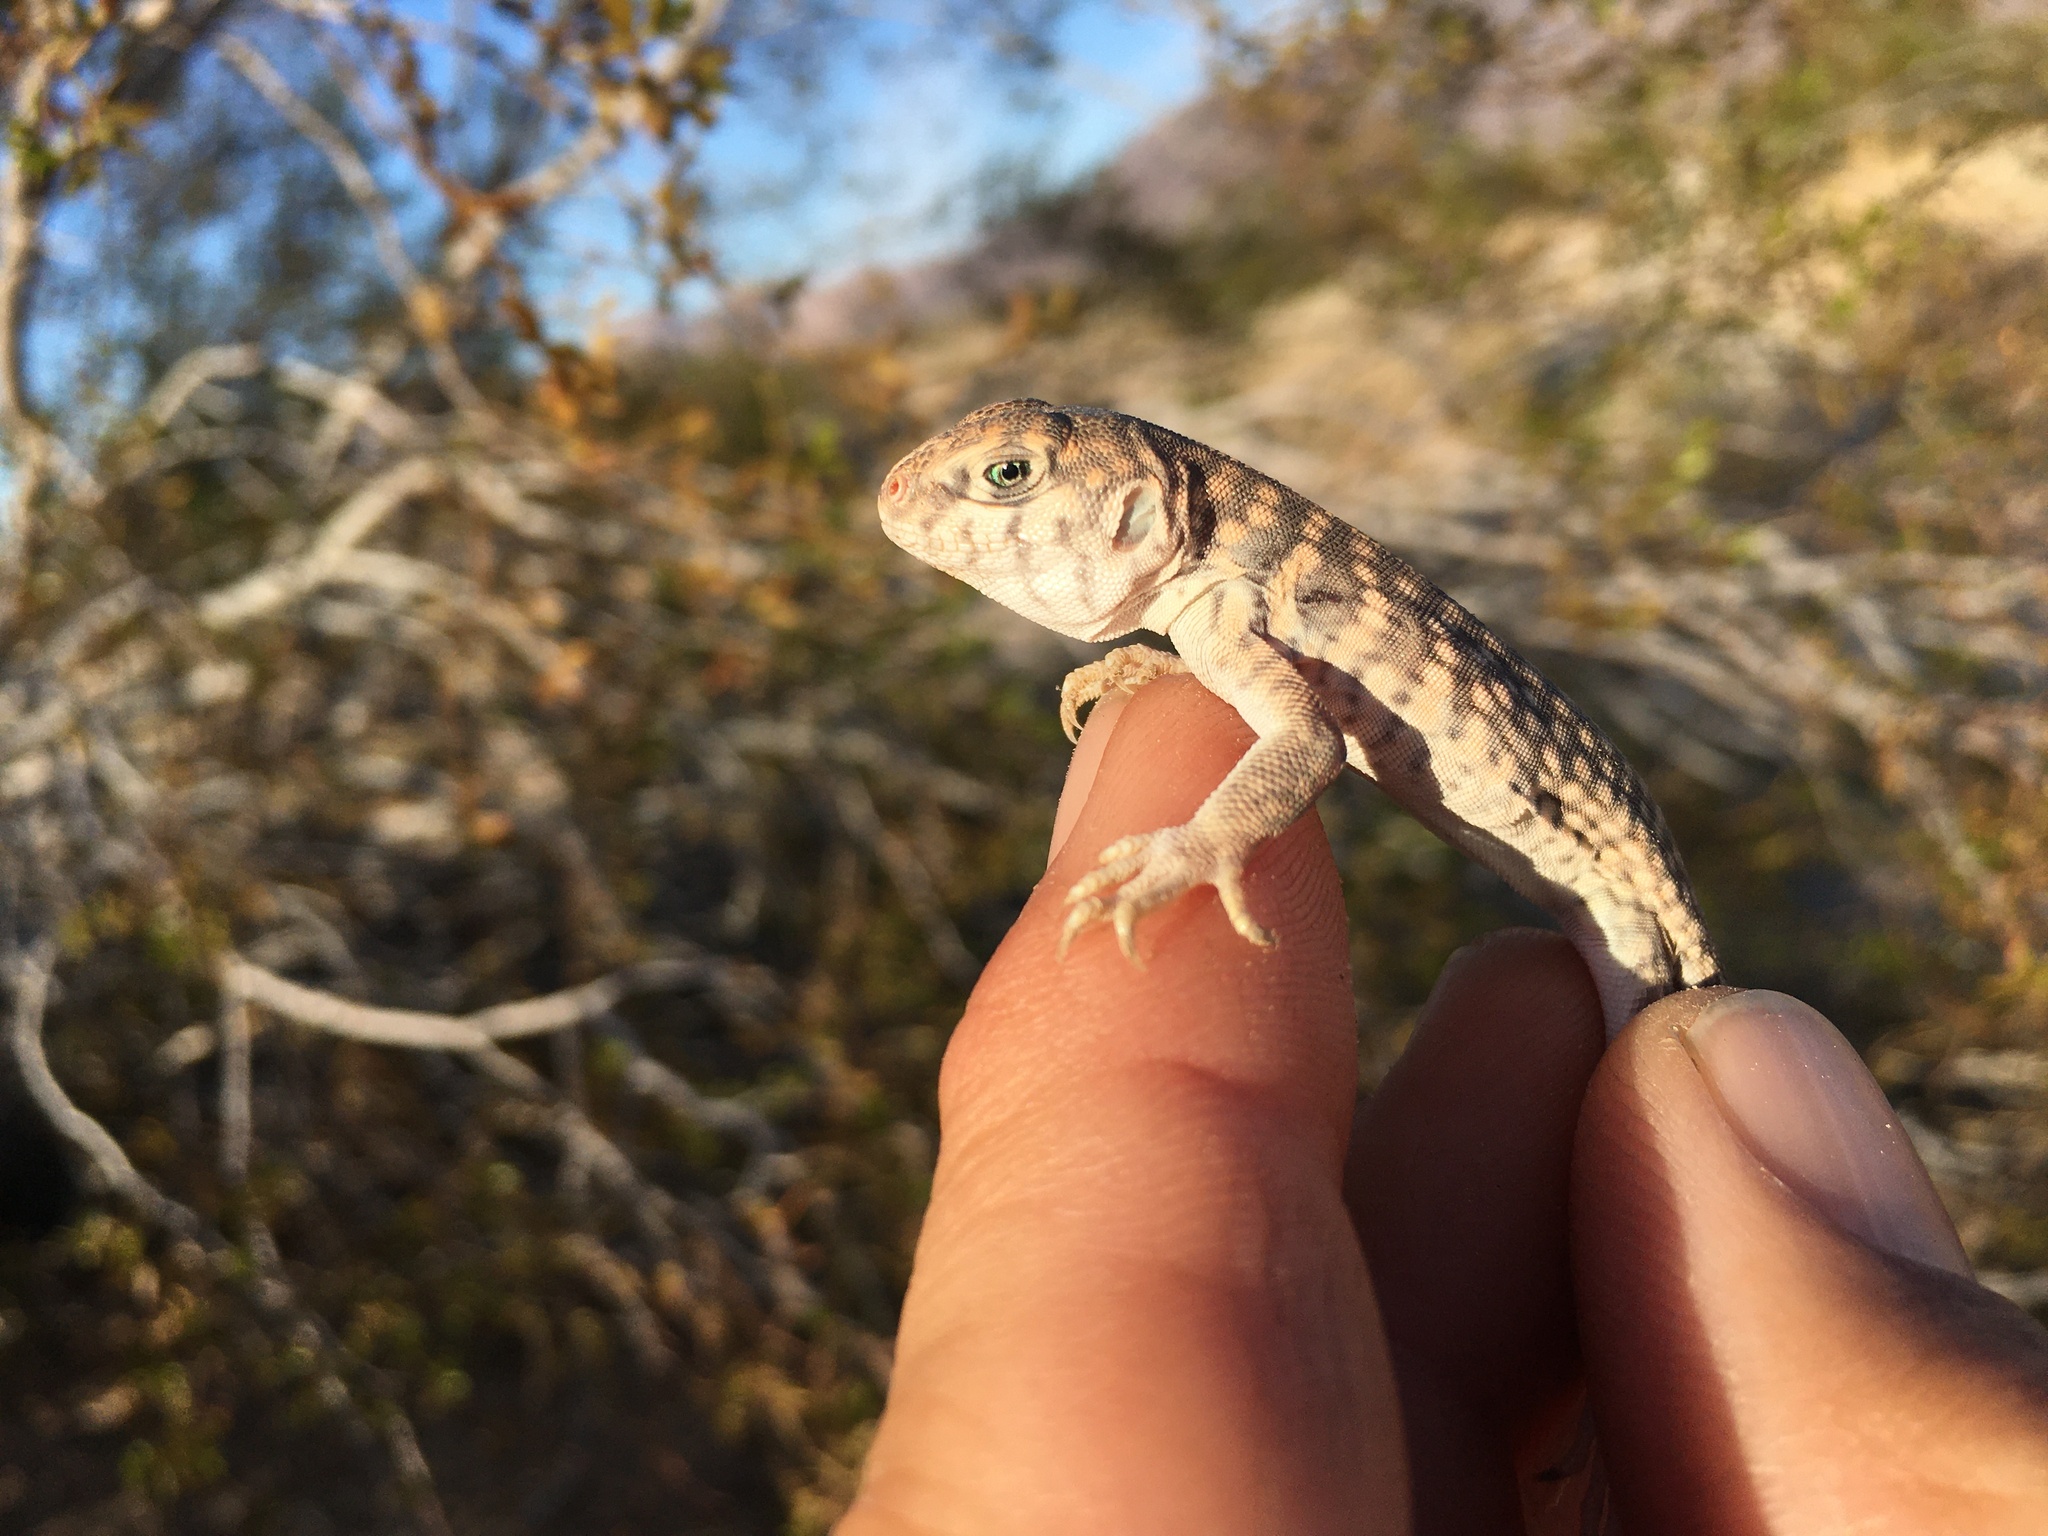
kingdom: Animalia
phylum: Chordata
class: Squamata
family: Iguanidae
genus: Dipsosaurus
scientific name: Dipsosaurus dorsalis
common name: Desert iguana
